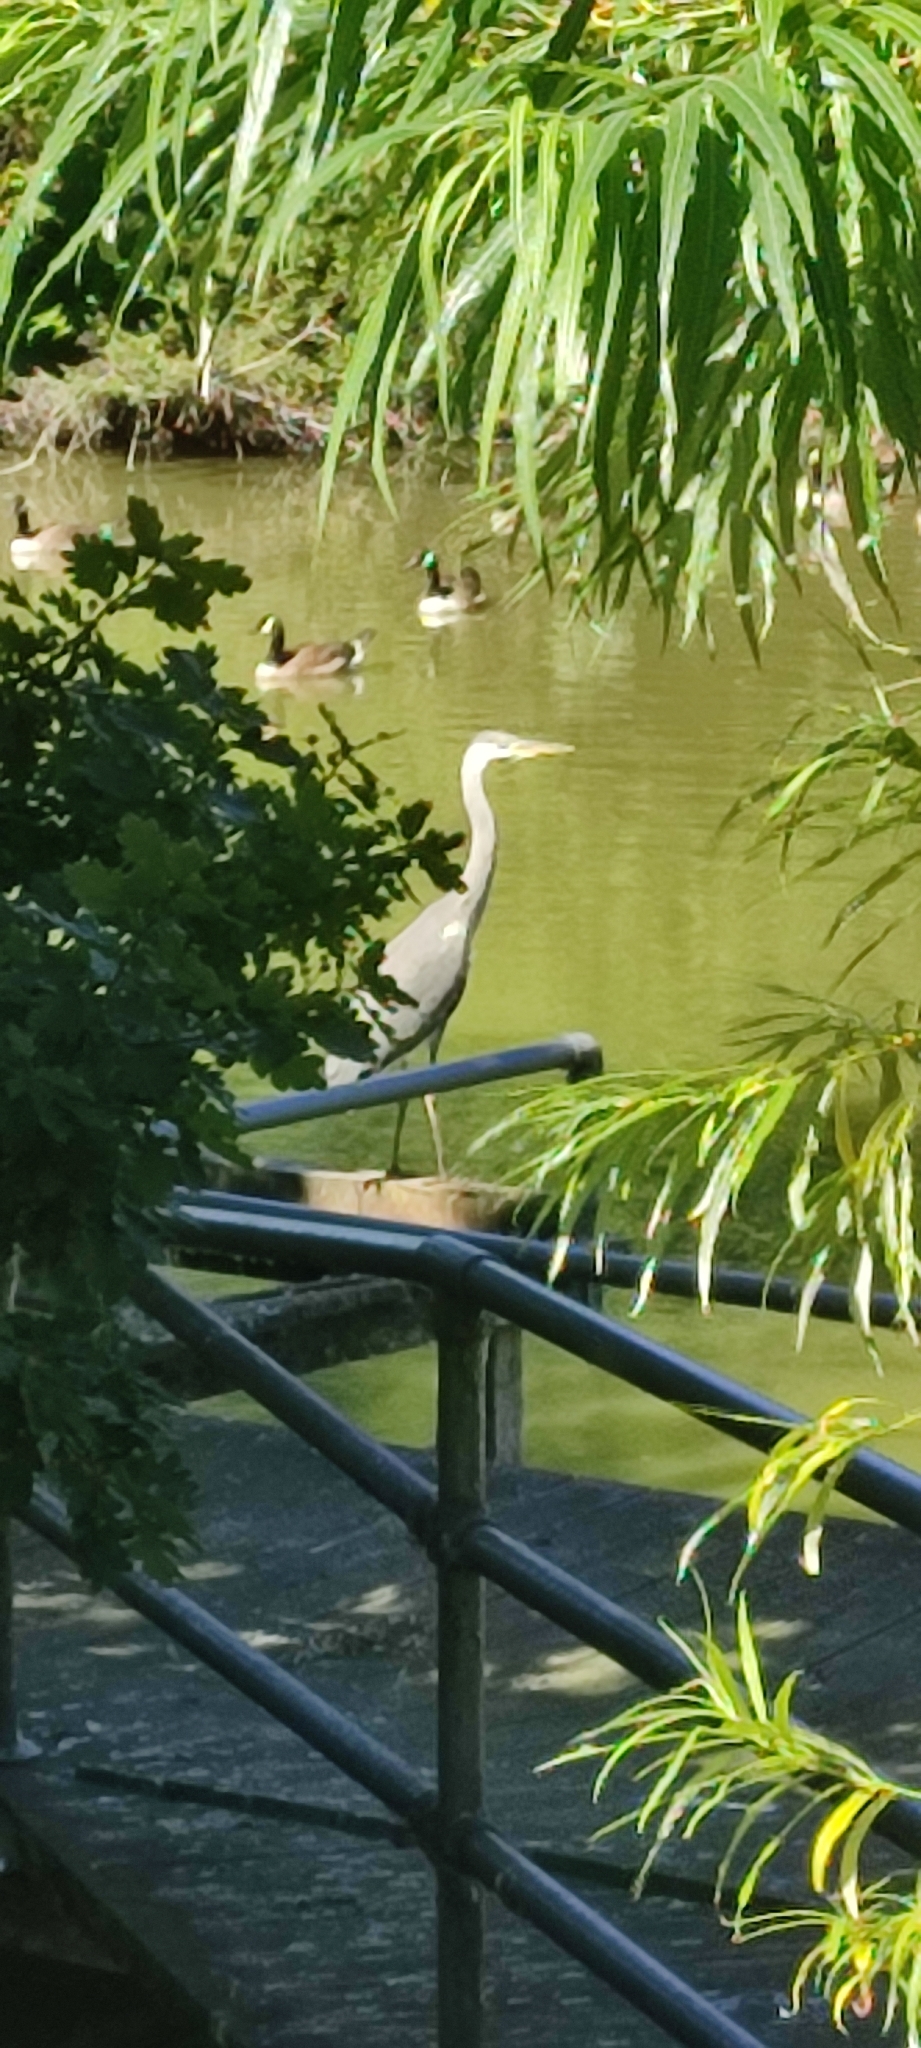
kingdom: Animalia
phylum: Chordata
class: Aves
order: Pelecaniformes
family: Ardeidae
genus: Ardea
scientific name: Ardea cinerea
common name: Grey heron
